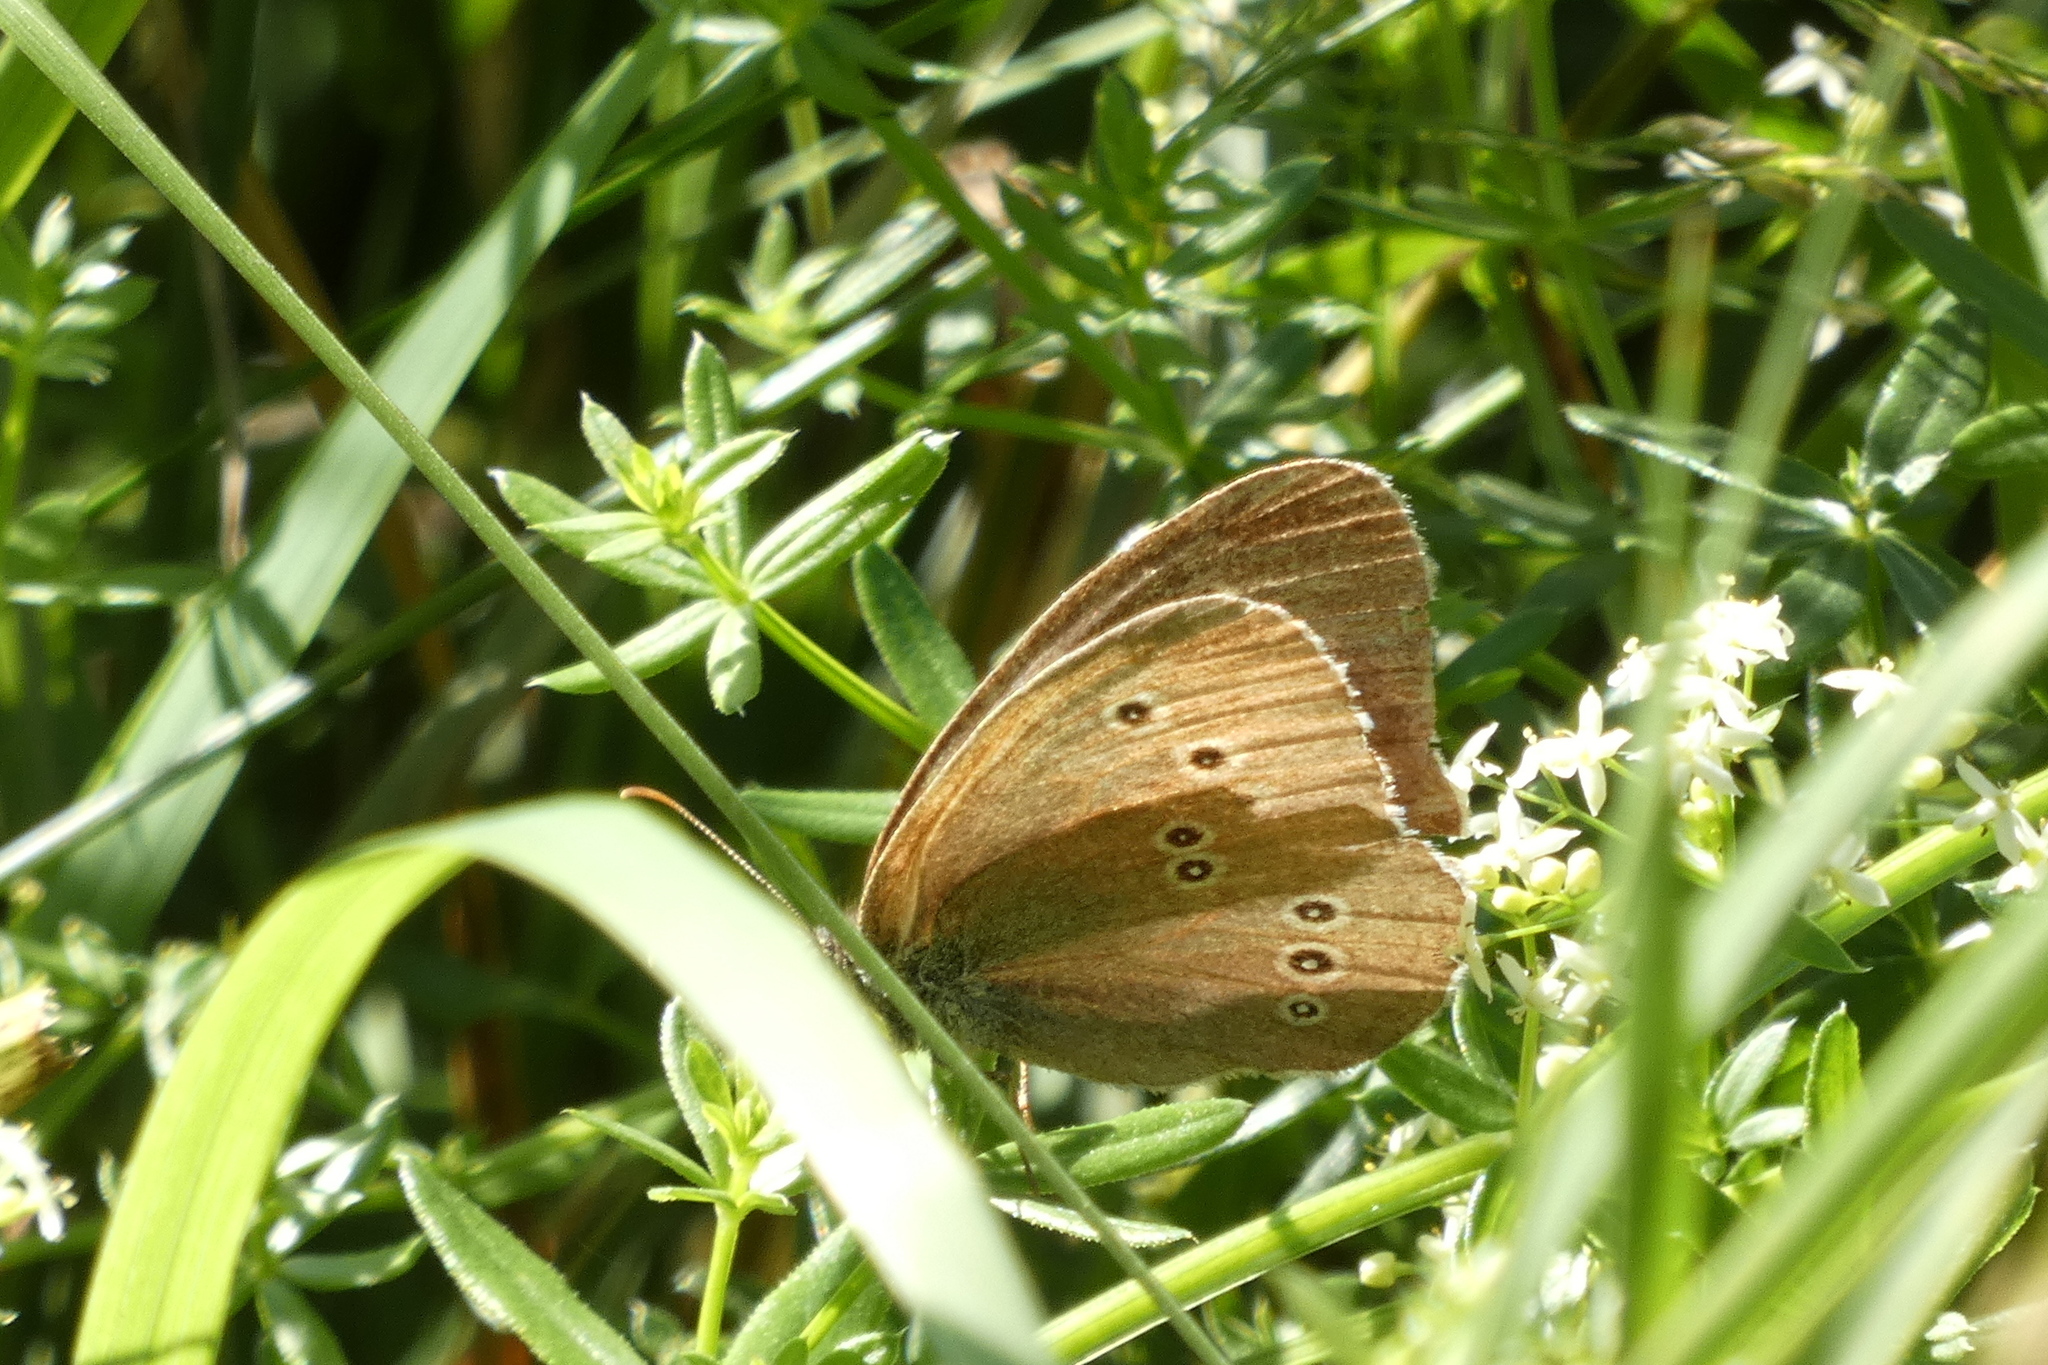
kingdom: Animalia
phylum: Arthropoda
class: Insecta
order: Lepidoptera
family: Nymphalidae
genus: Aphantopus
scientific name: Aphantopus hyperantus
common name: Ringlet
